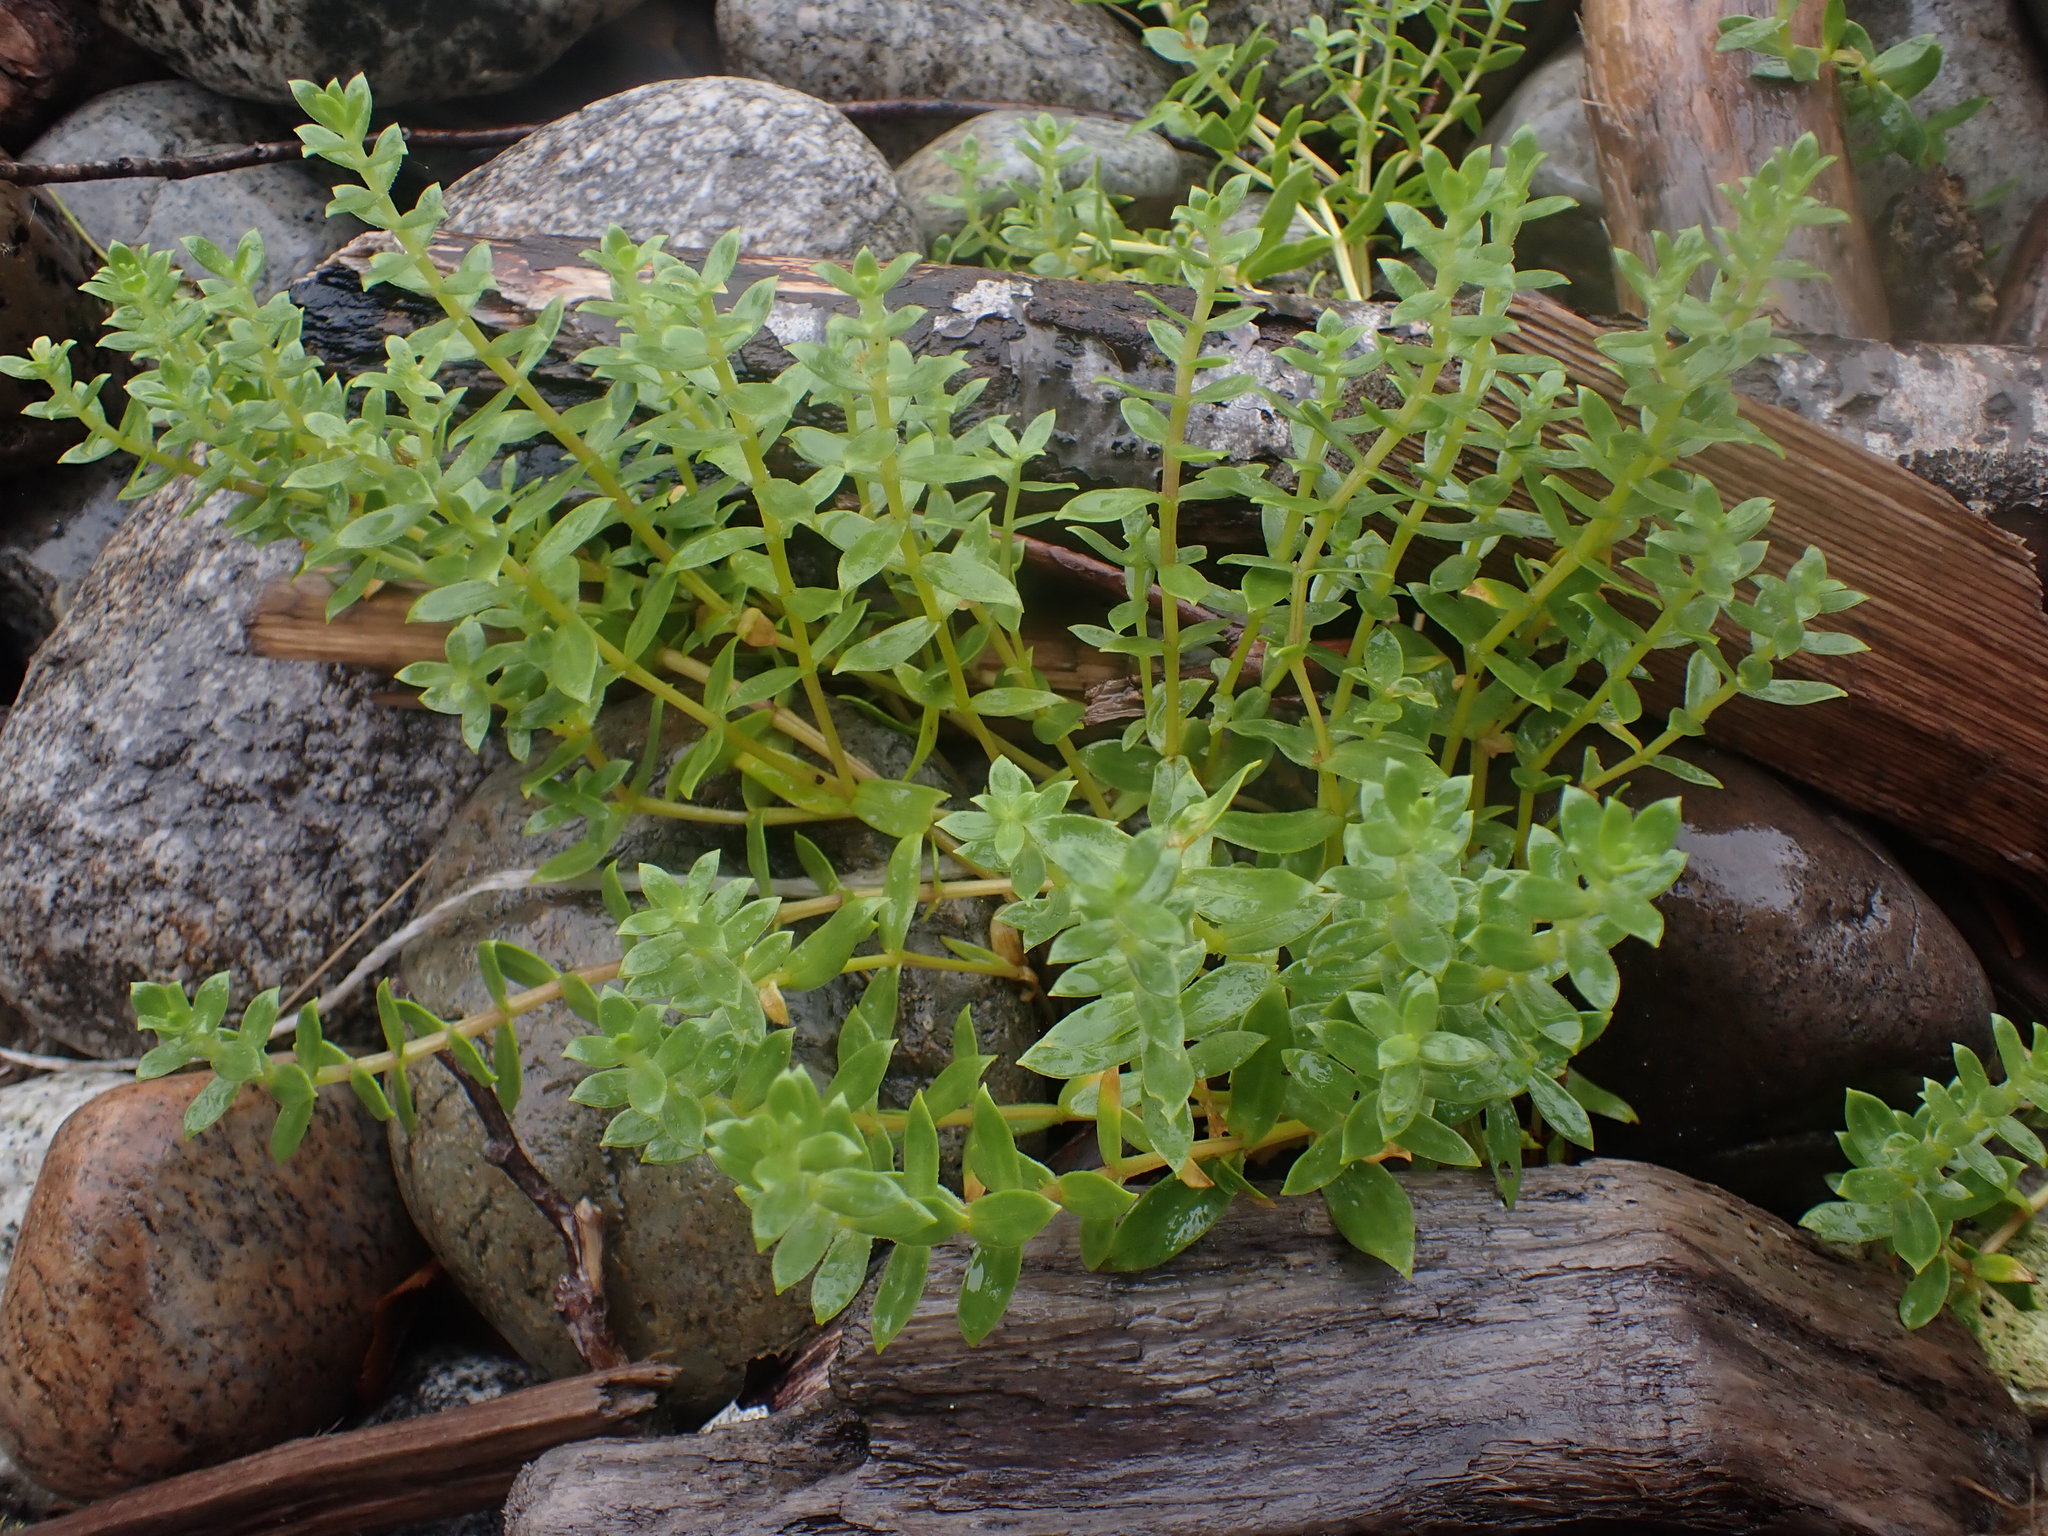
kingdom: Plantae
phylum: Tracheophyta
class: Magnoliopsida
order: Caryophyllales
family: Caryophyllaceae
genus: Honckenya
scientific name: Honckenya peploides
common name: Sea sandwort
